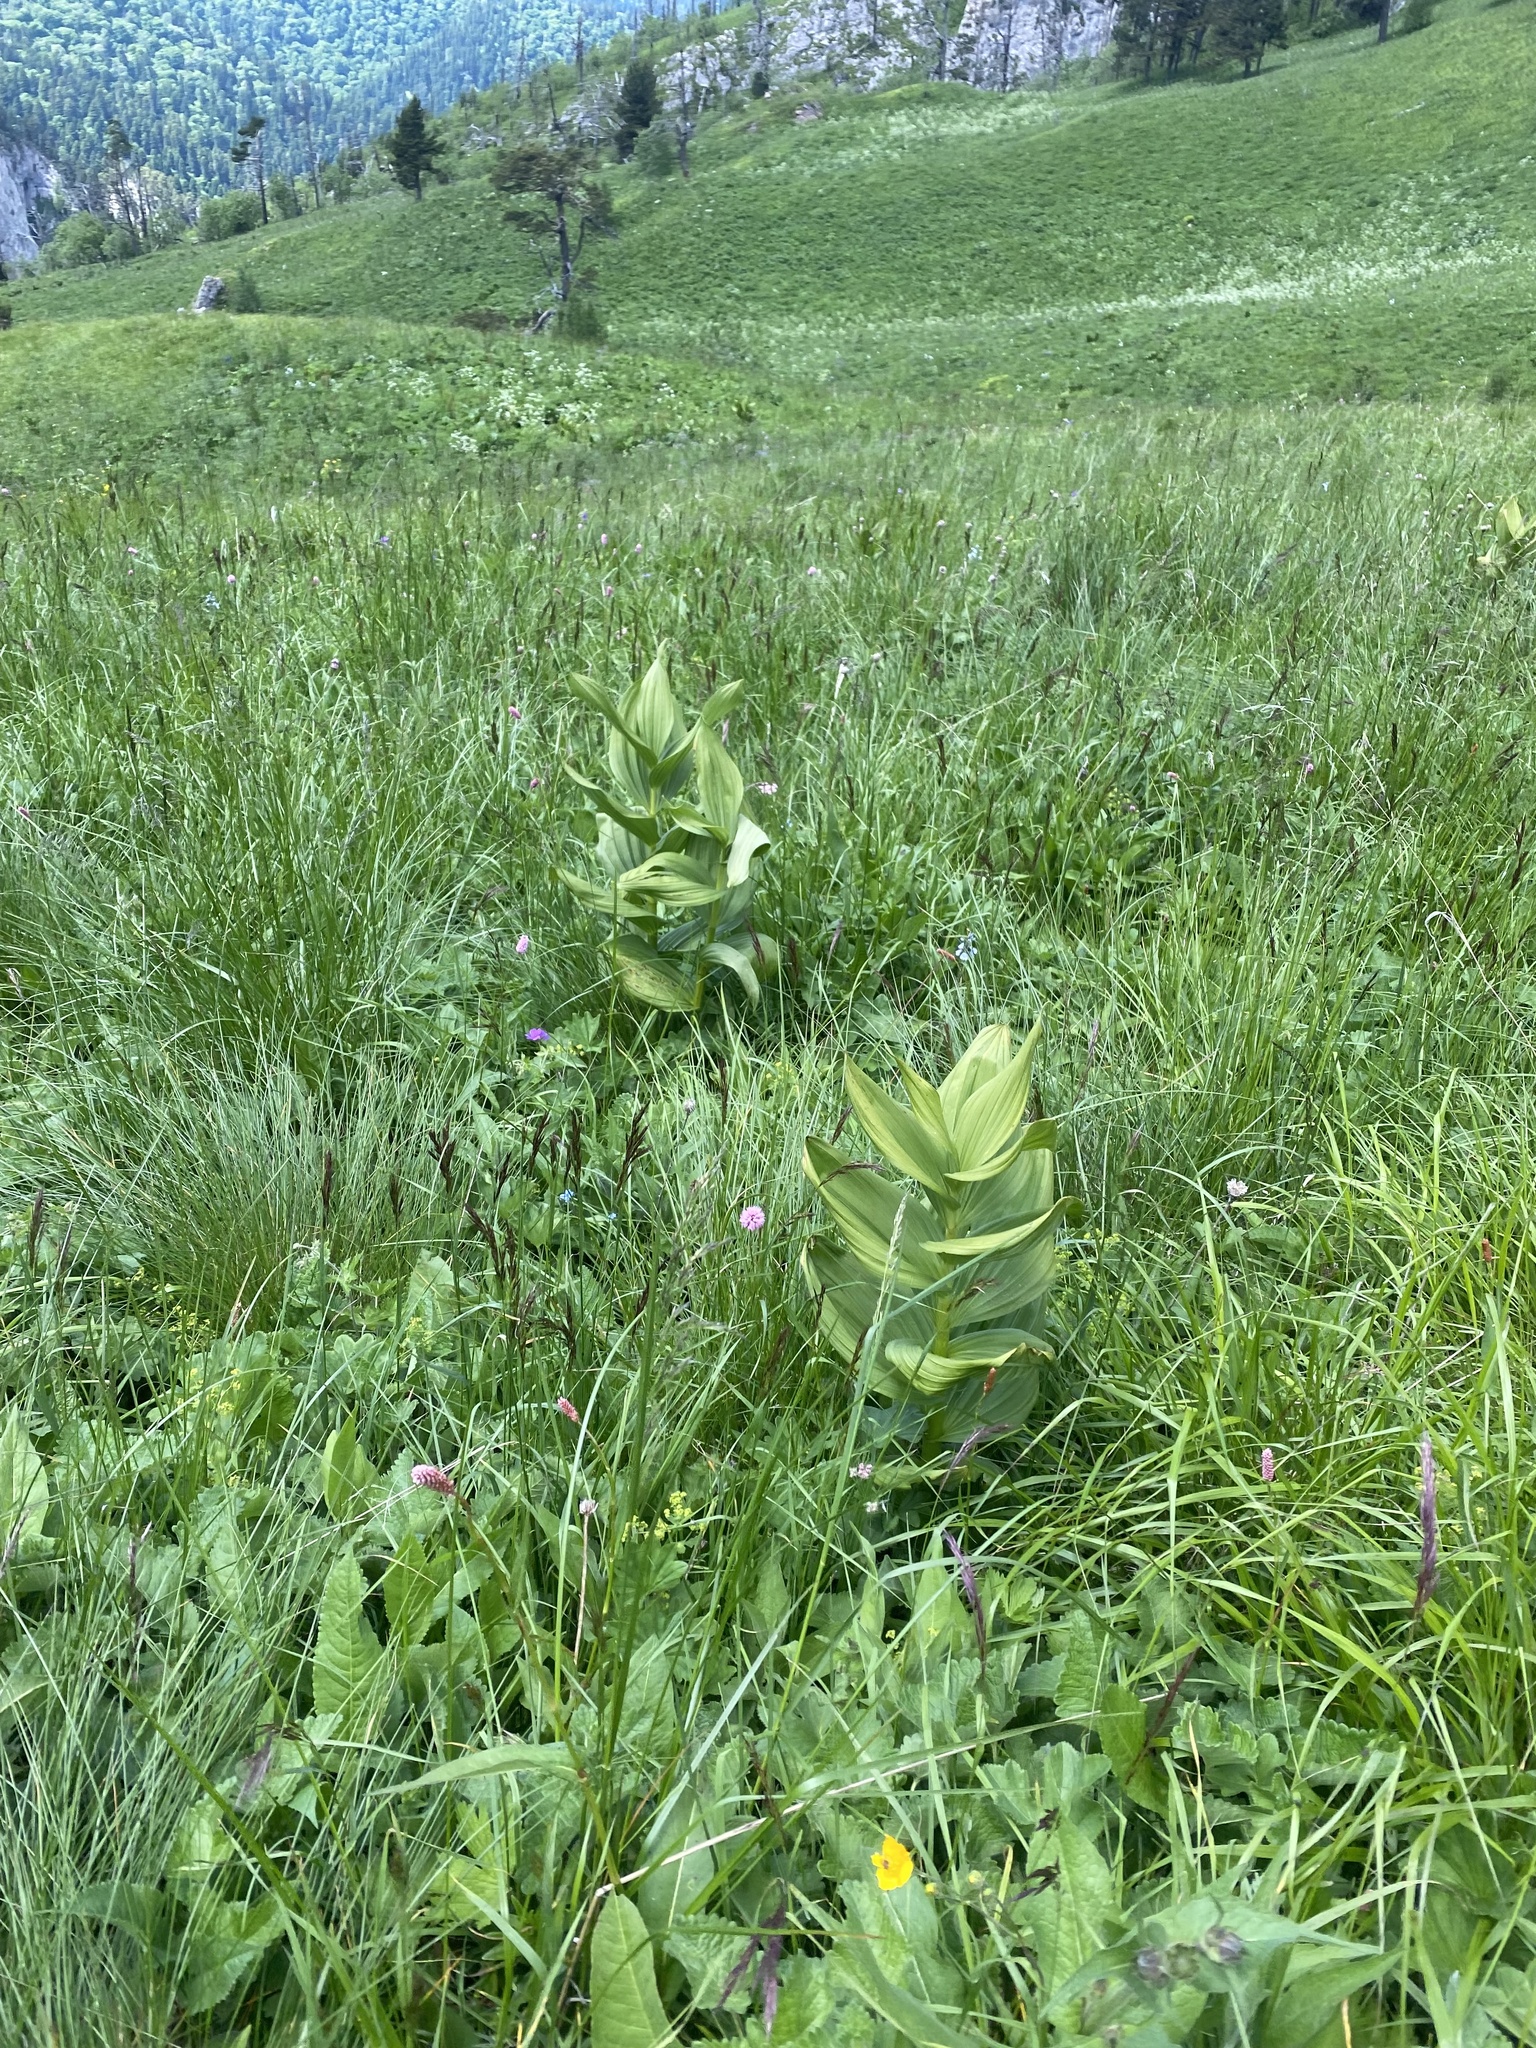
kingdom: Plantae
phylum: Tracheophyta
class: Liliopsida
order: Liliales
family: Melanthiaceae
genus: Veratrum
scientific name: Veratrum lobelianum
